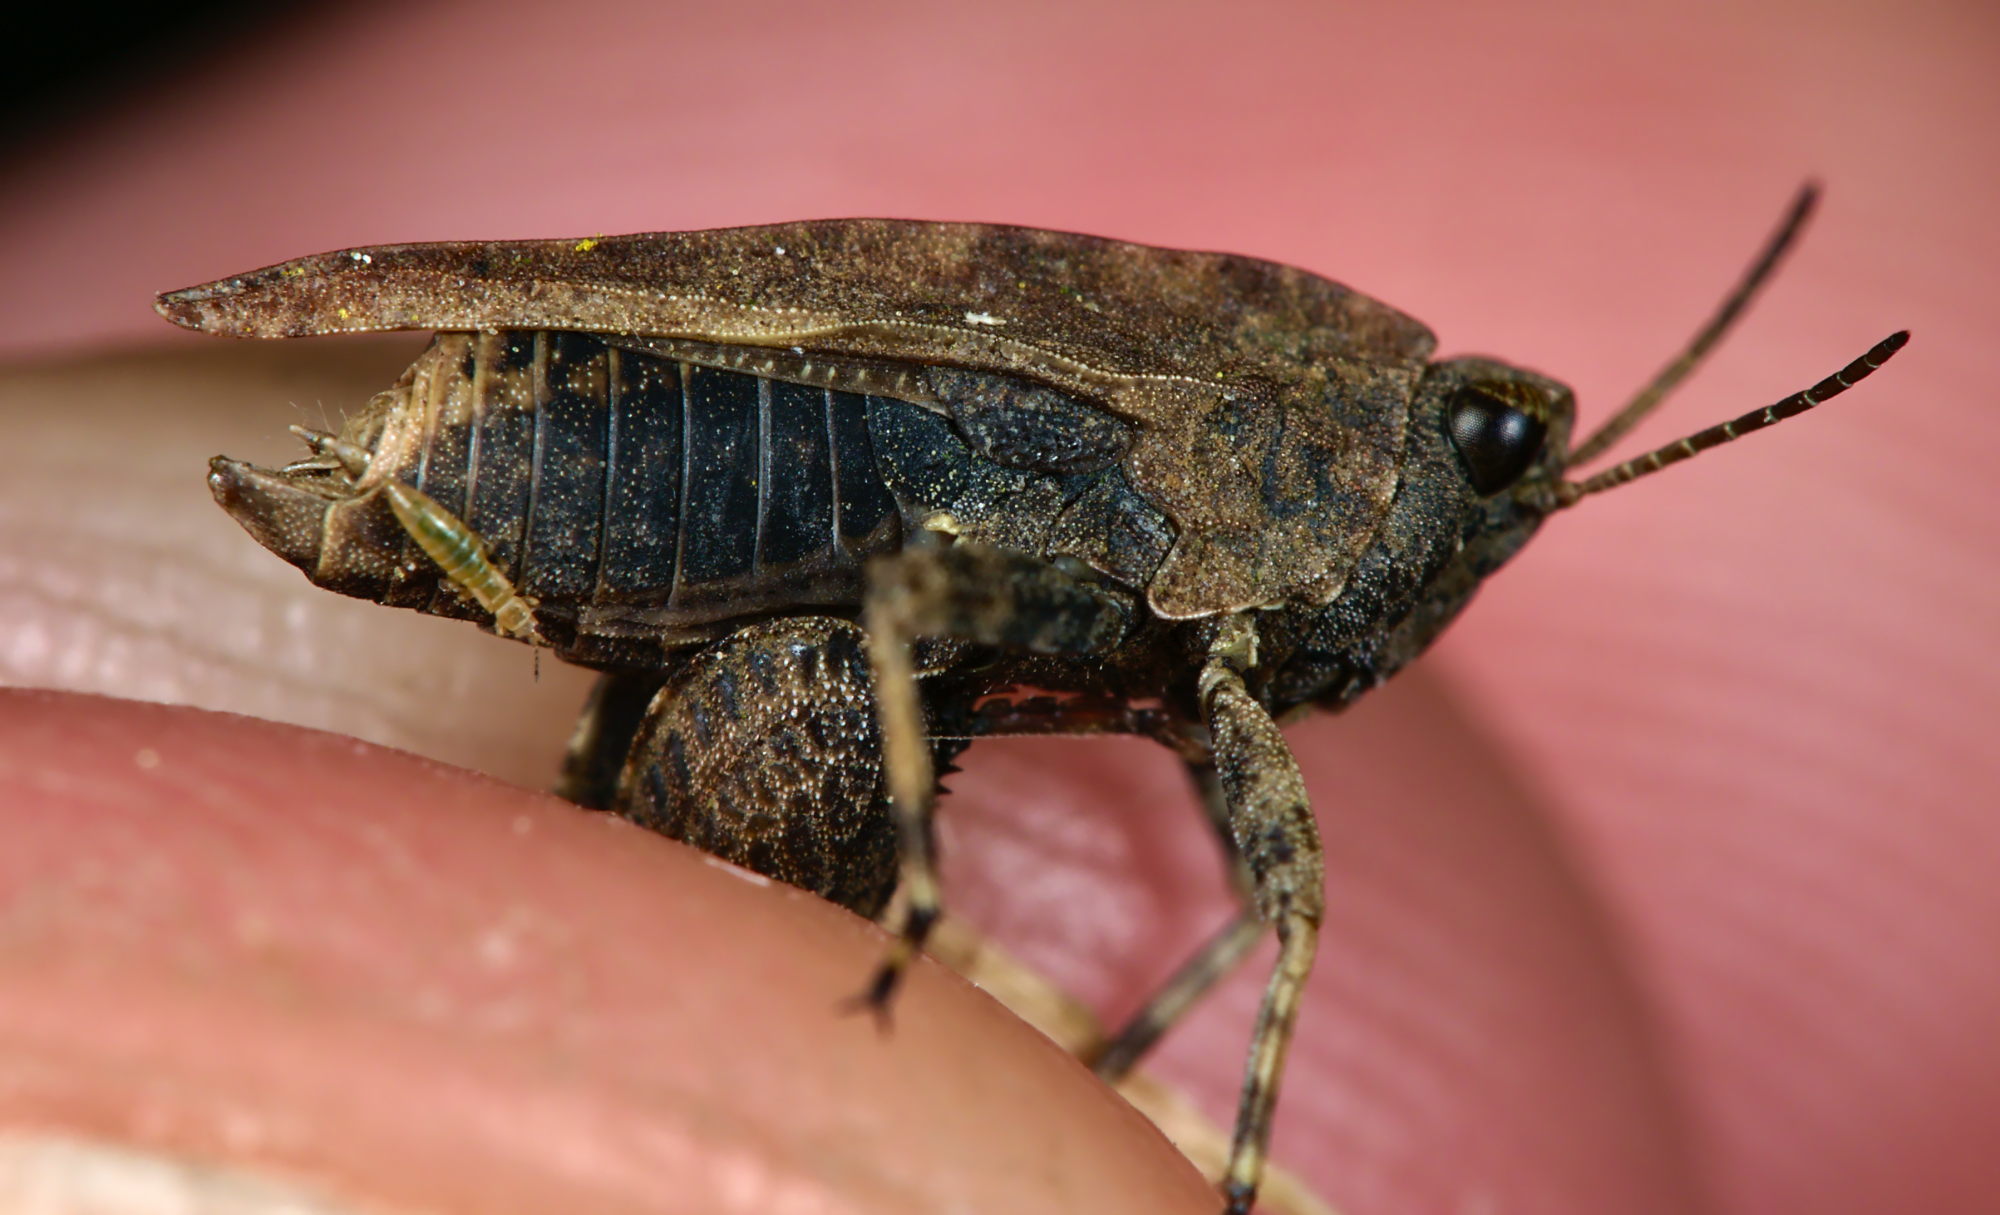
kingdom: Animalia
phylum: Arthropoda
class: Insecta
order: Orthoptera
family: Tetrigidae
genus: Tetrix
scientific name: Tetrix undulata
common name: Common groundhopper
